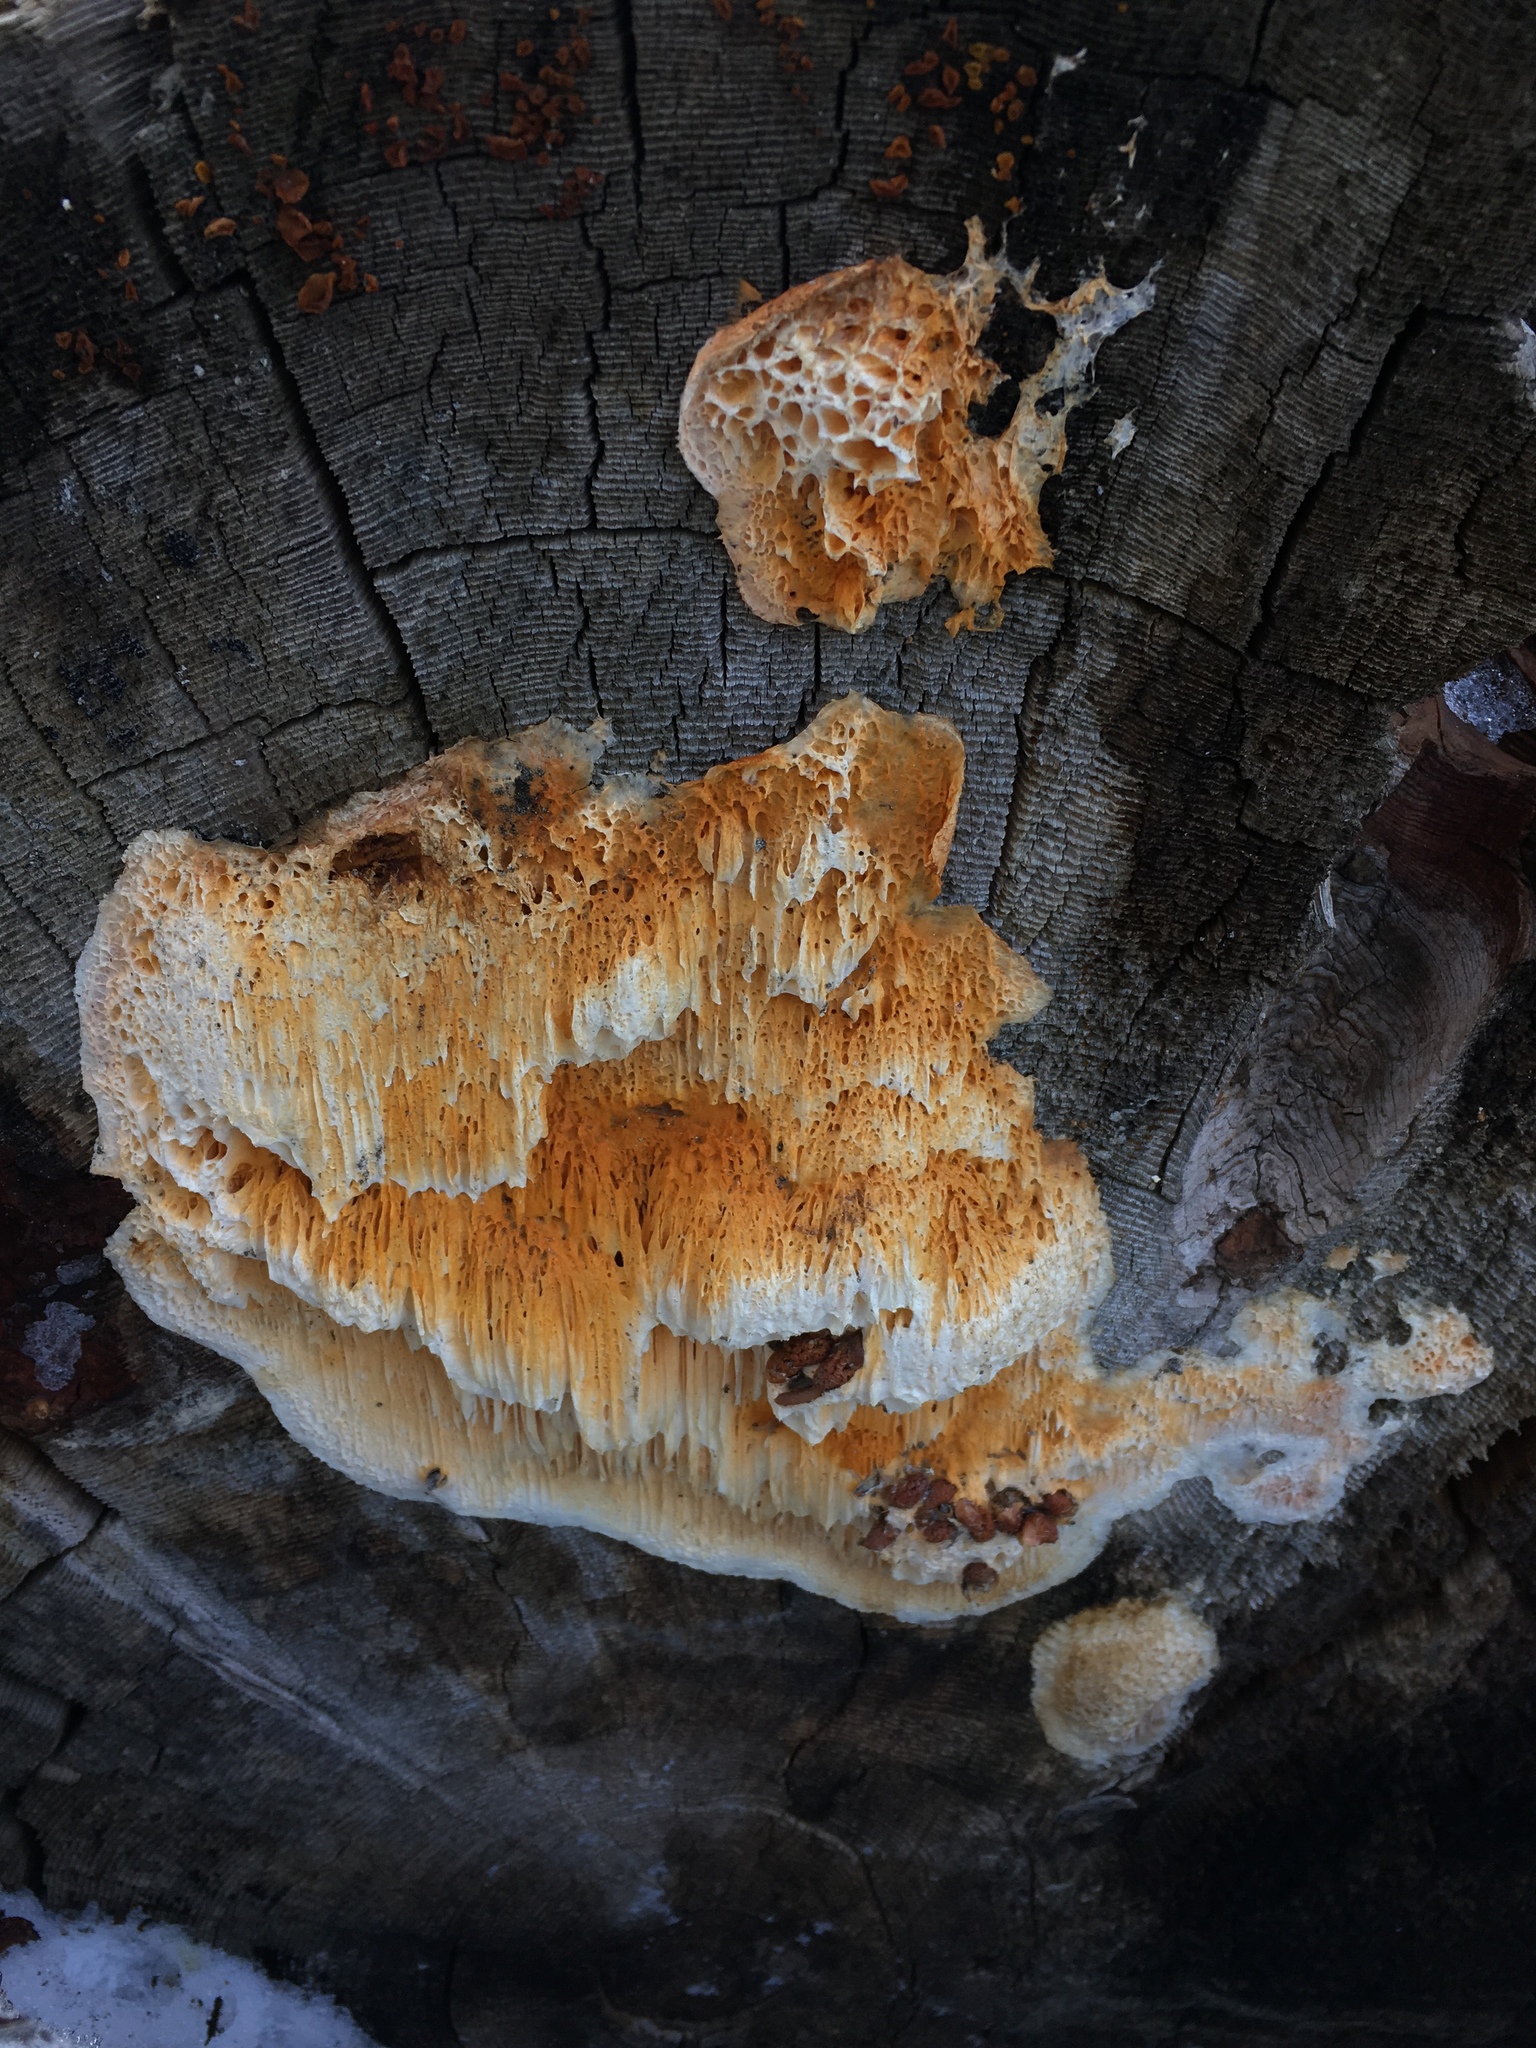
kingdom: Fungi
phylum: Basidiomycota
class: Agaricomycetes
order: Polyporales
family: Pycnoporellaceae
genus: Pycnoporellus
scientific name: Pycnoporellus alboluteus
